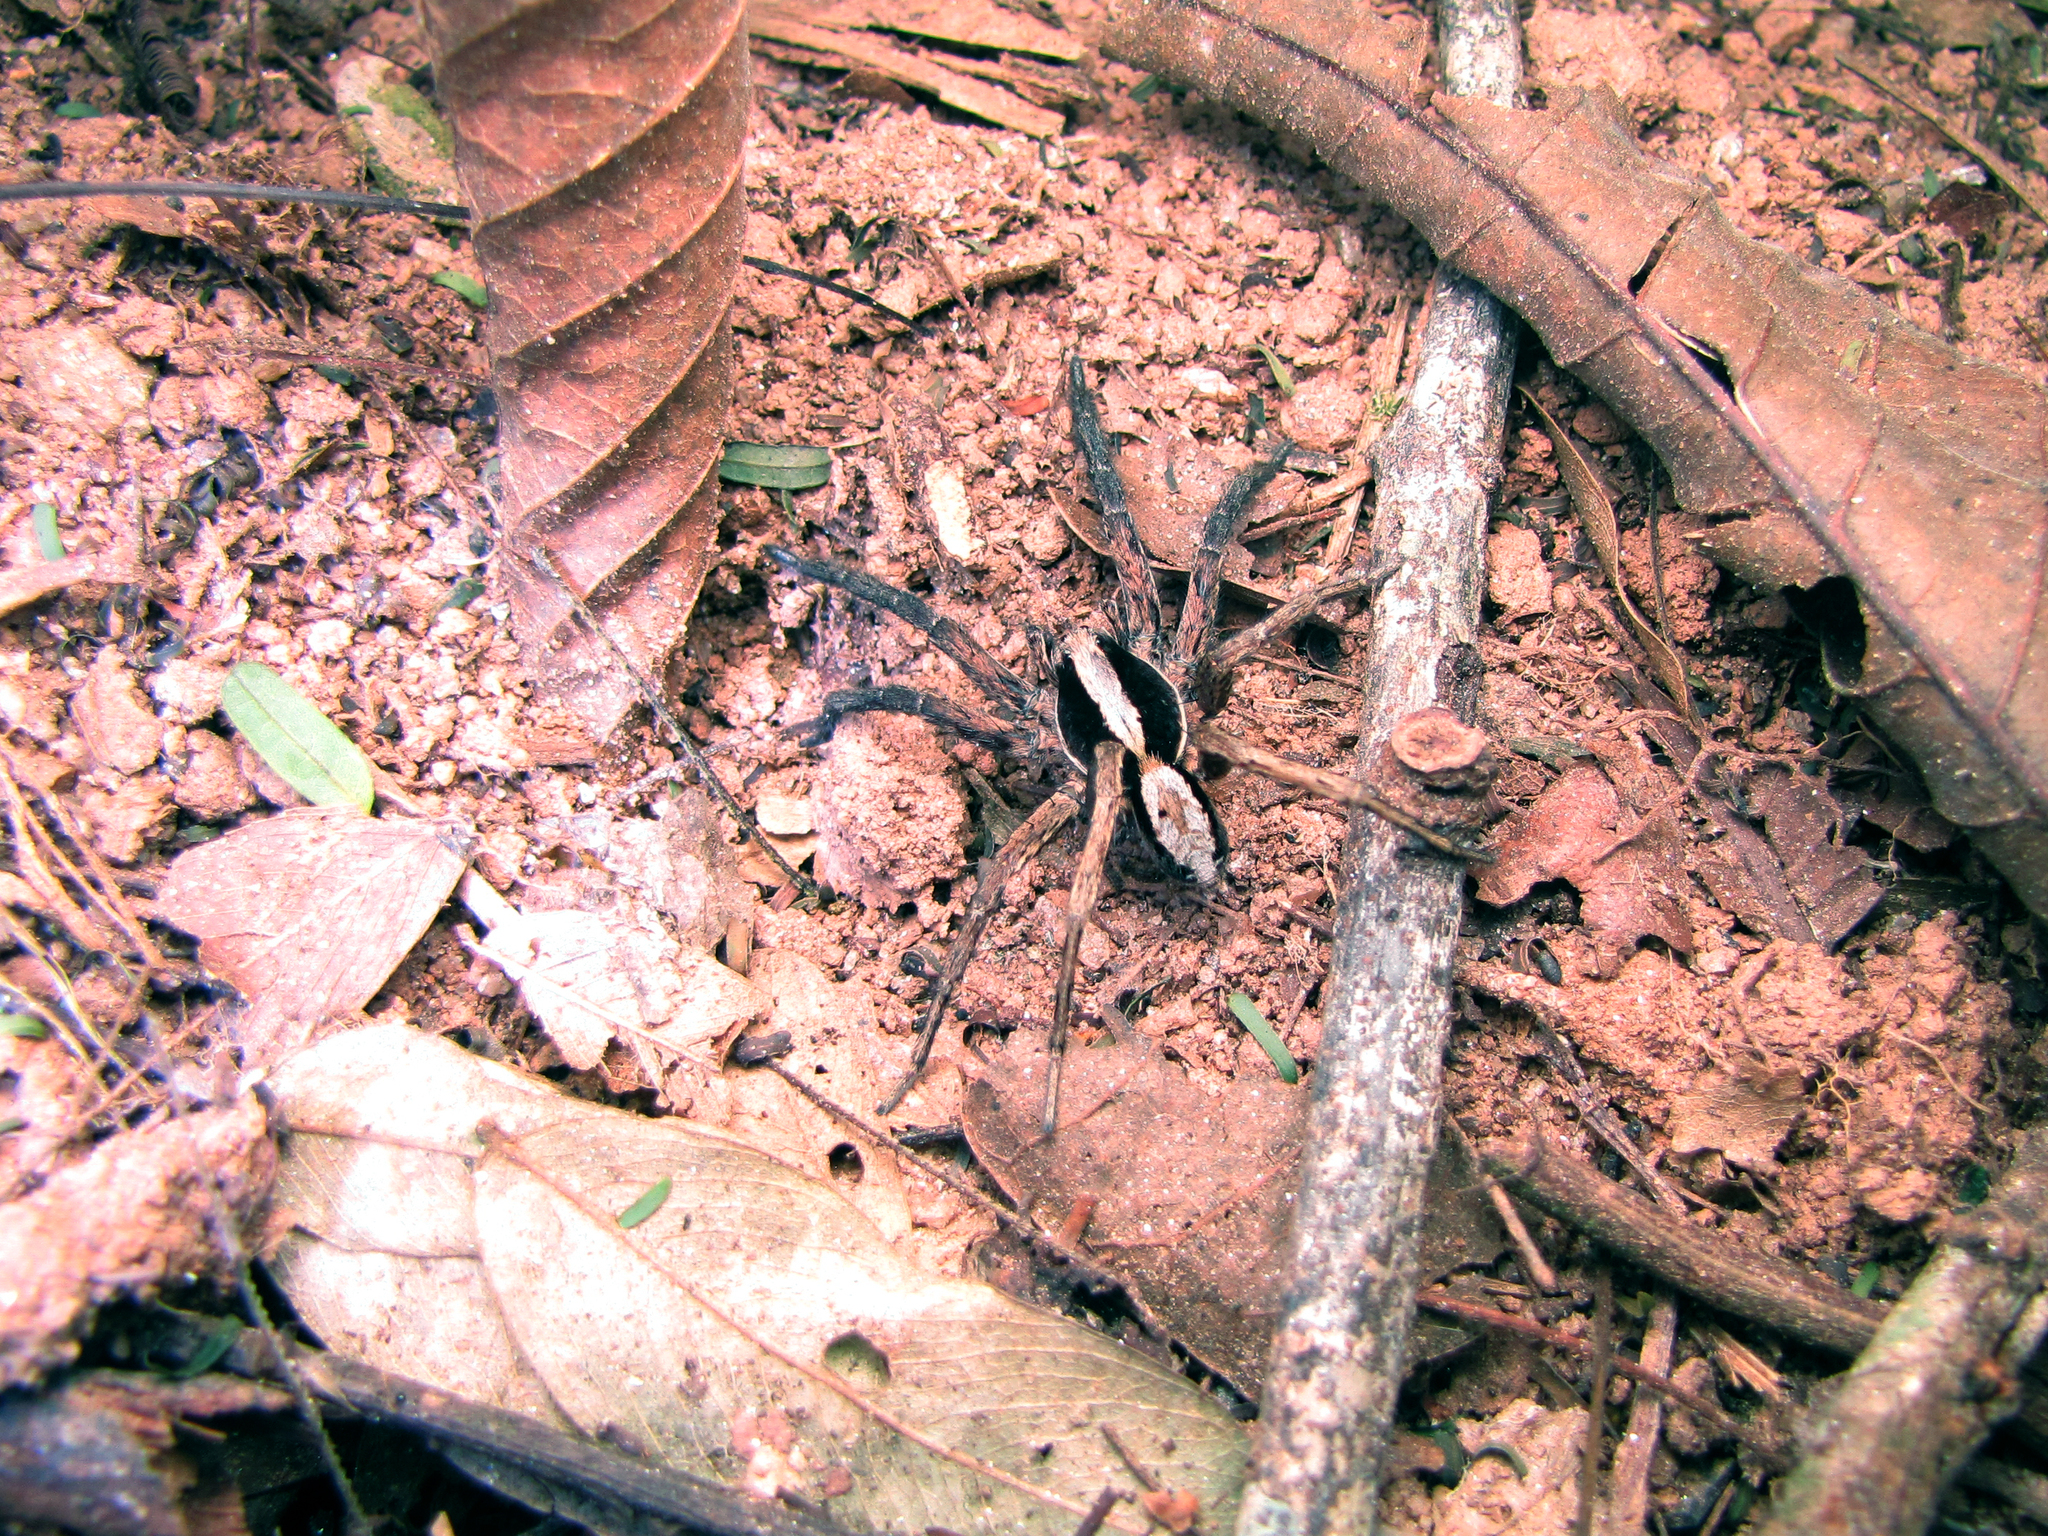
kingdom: Animalia
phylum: Arthropoda
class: Arachnida
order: Araneae
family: Lycosidae
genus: Hogna
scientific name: Hogna gumia
